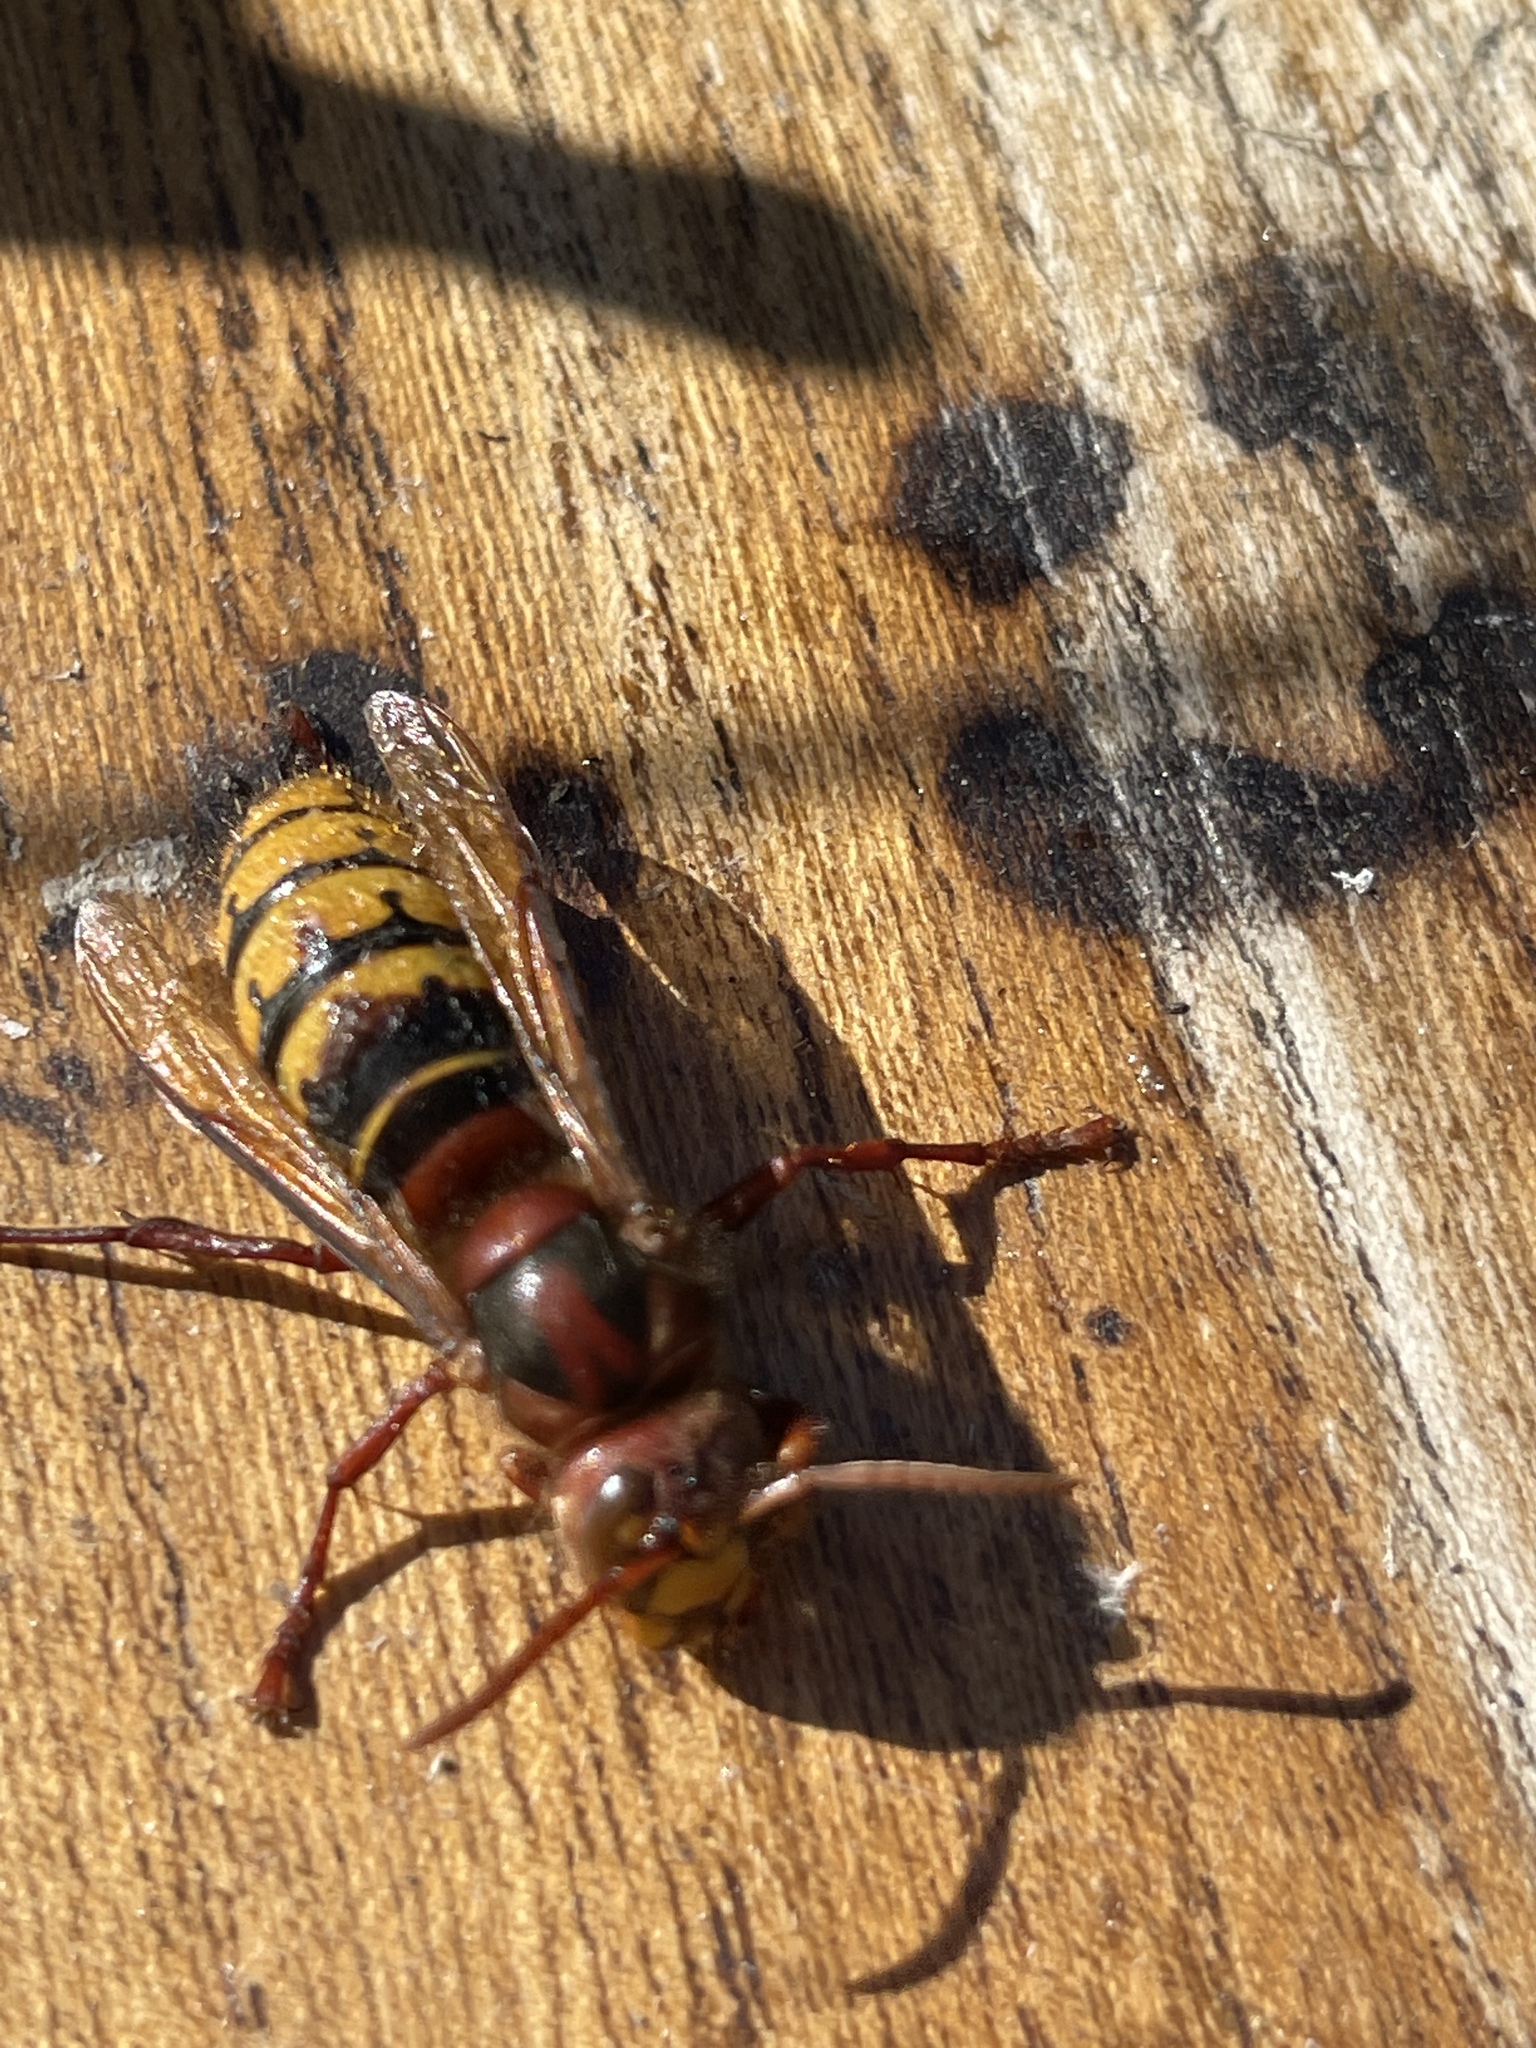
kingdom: Animalia
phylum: Arthropoda
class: Insecta
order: Hymenoptera
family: Vespidae
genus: Vespa
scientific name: Vespa crabro
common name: Hornet
